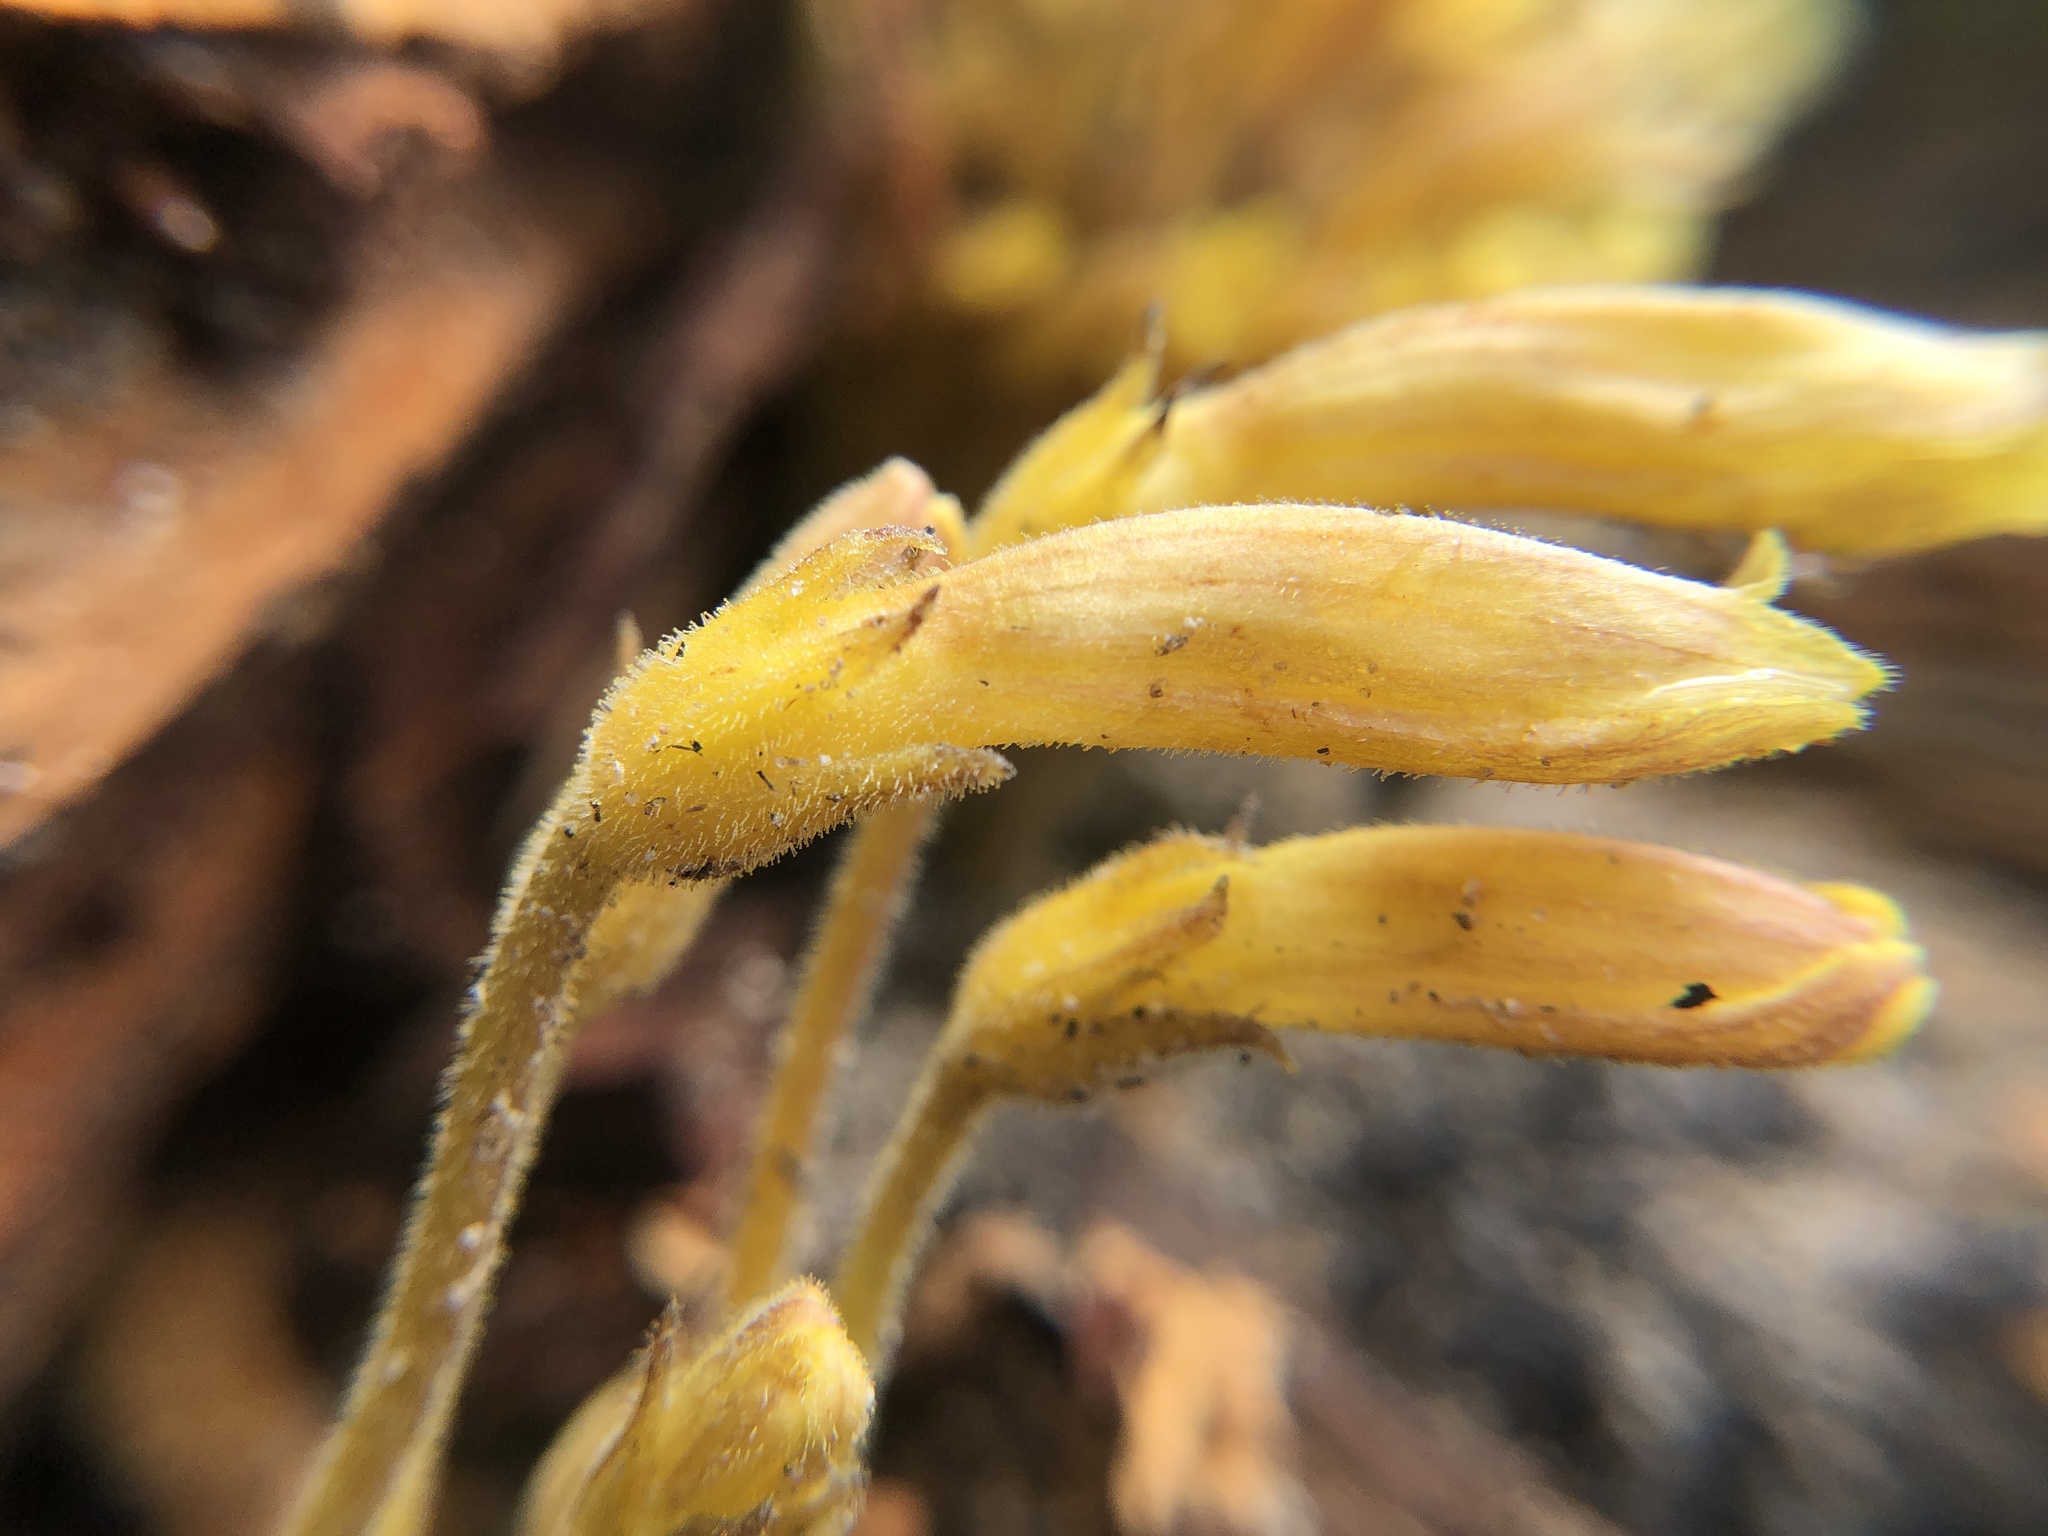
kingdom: Plantae
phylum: Tracheophyta
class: Magnoliopsida
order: Lamiales
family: Orobanchaceae
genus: Aphyllon
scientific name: Aphyllon franciscanum
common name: San francisco broomrape
